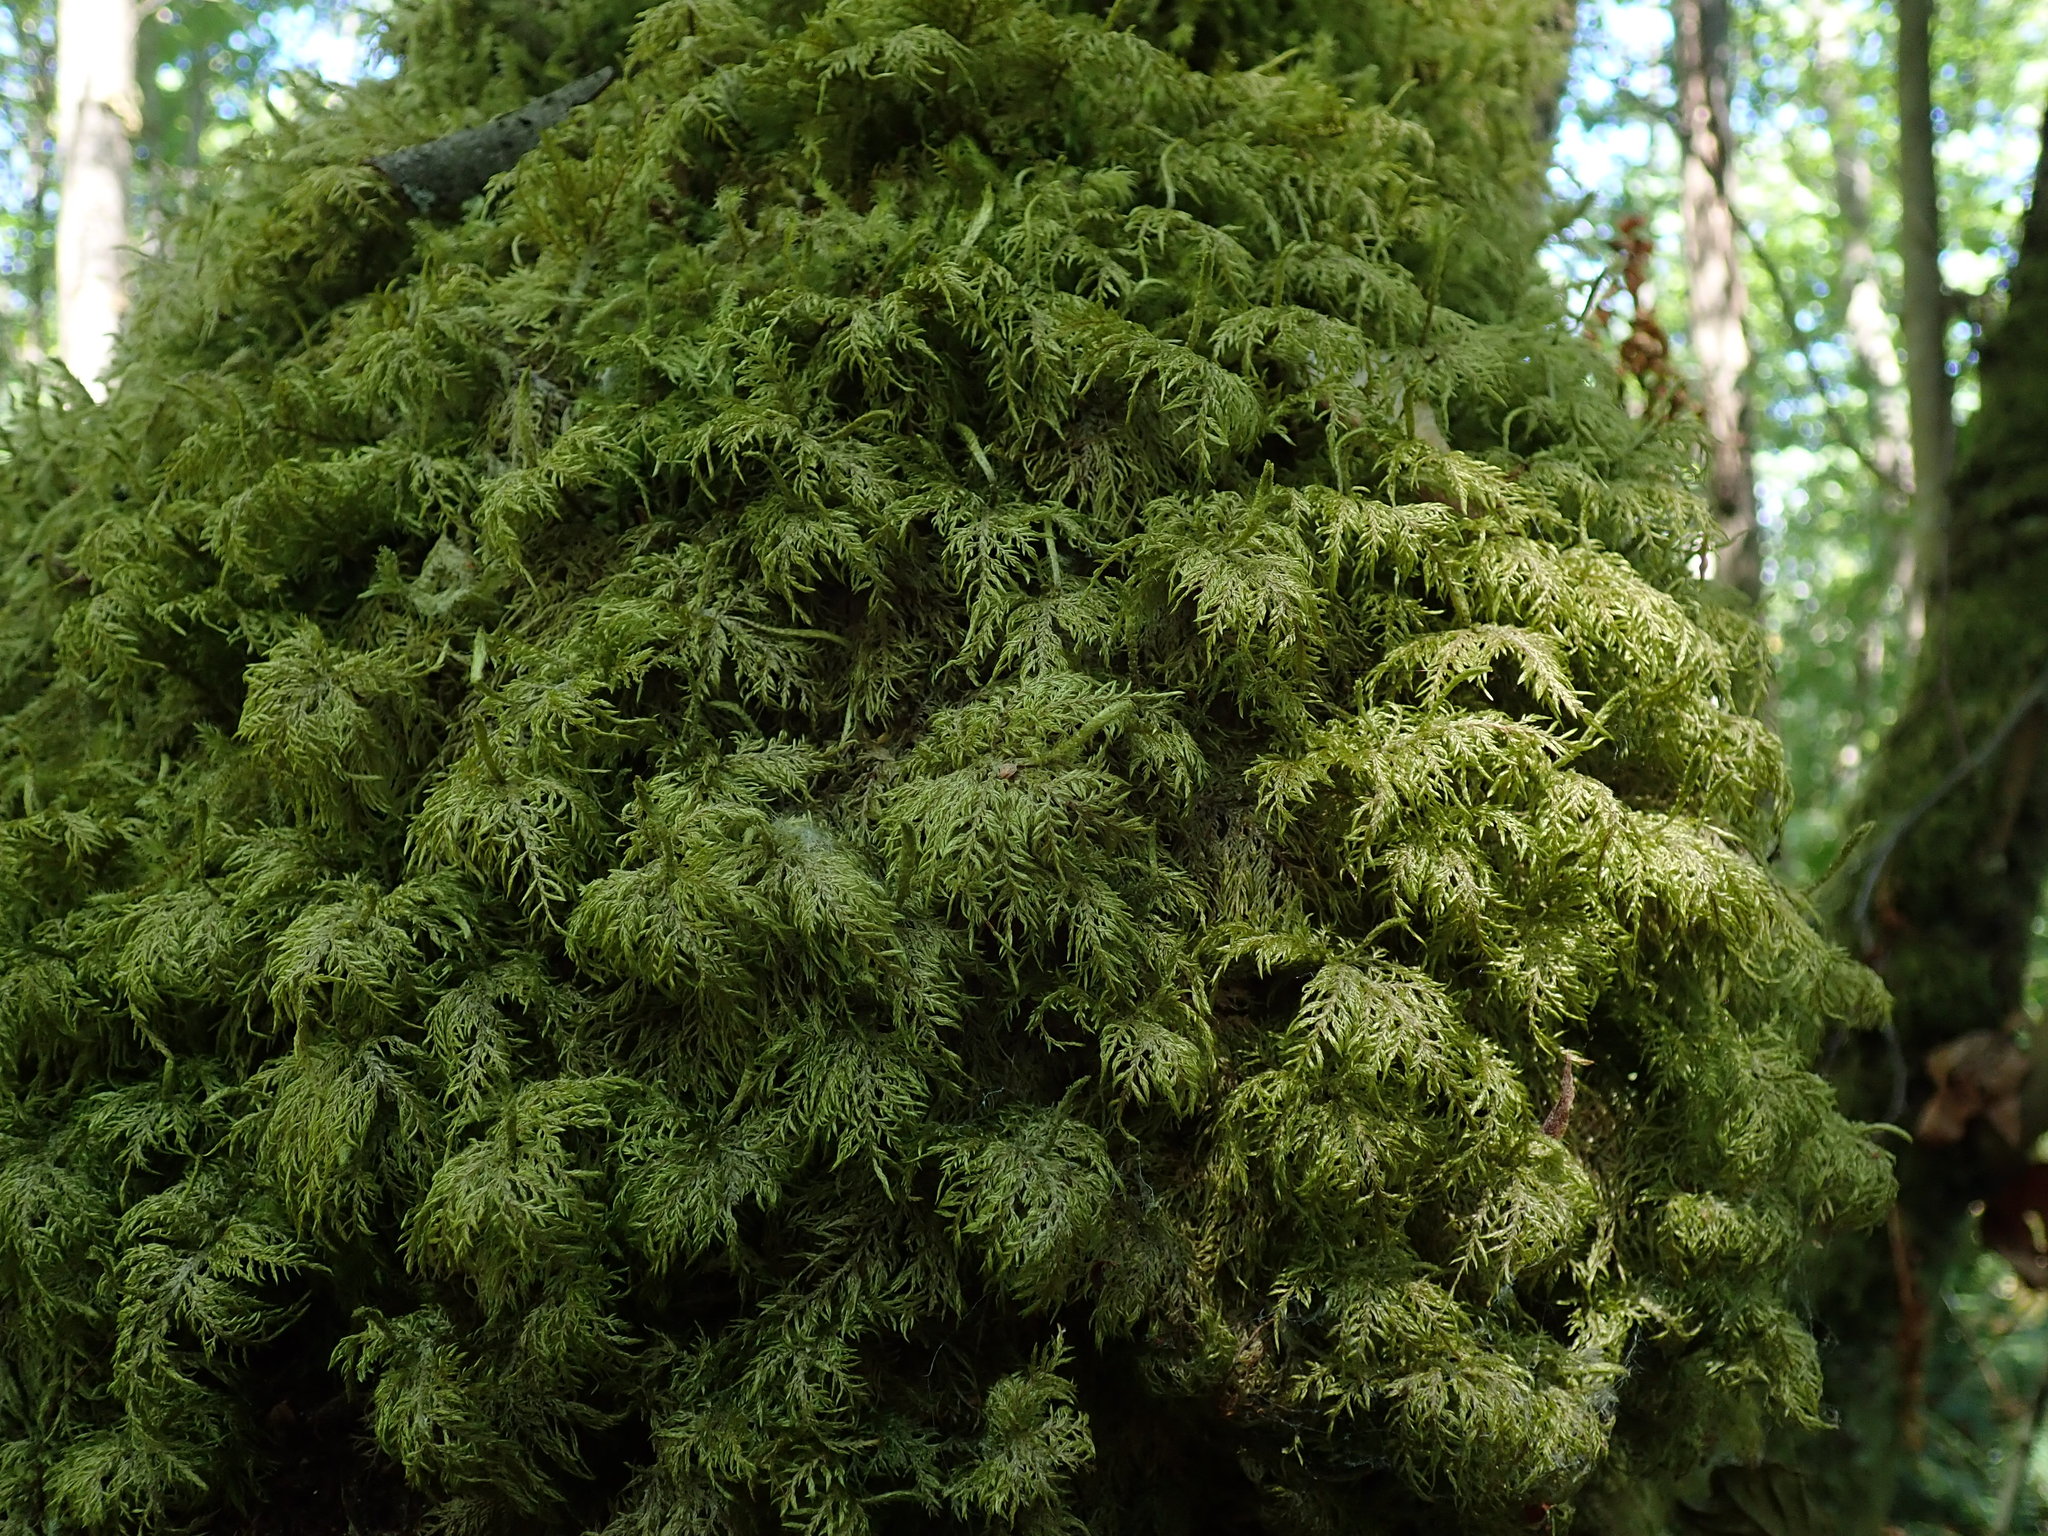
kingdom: Plantae
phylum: Bryophyta
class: Bryopsida
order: Hypnales
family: Hylocomiaceae
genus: Hylocomium
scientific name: Hylocomium splendens
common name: Stairstep moss
